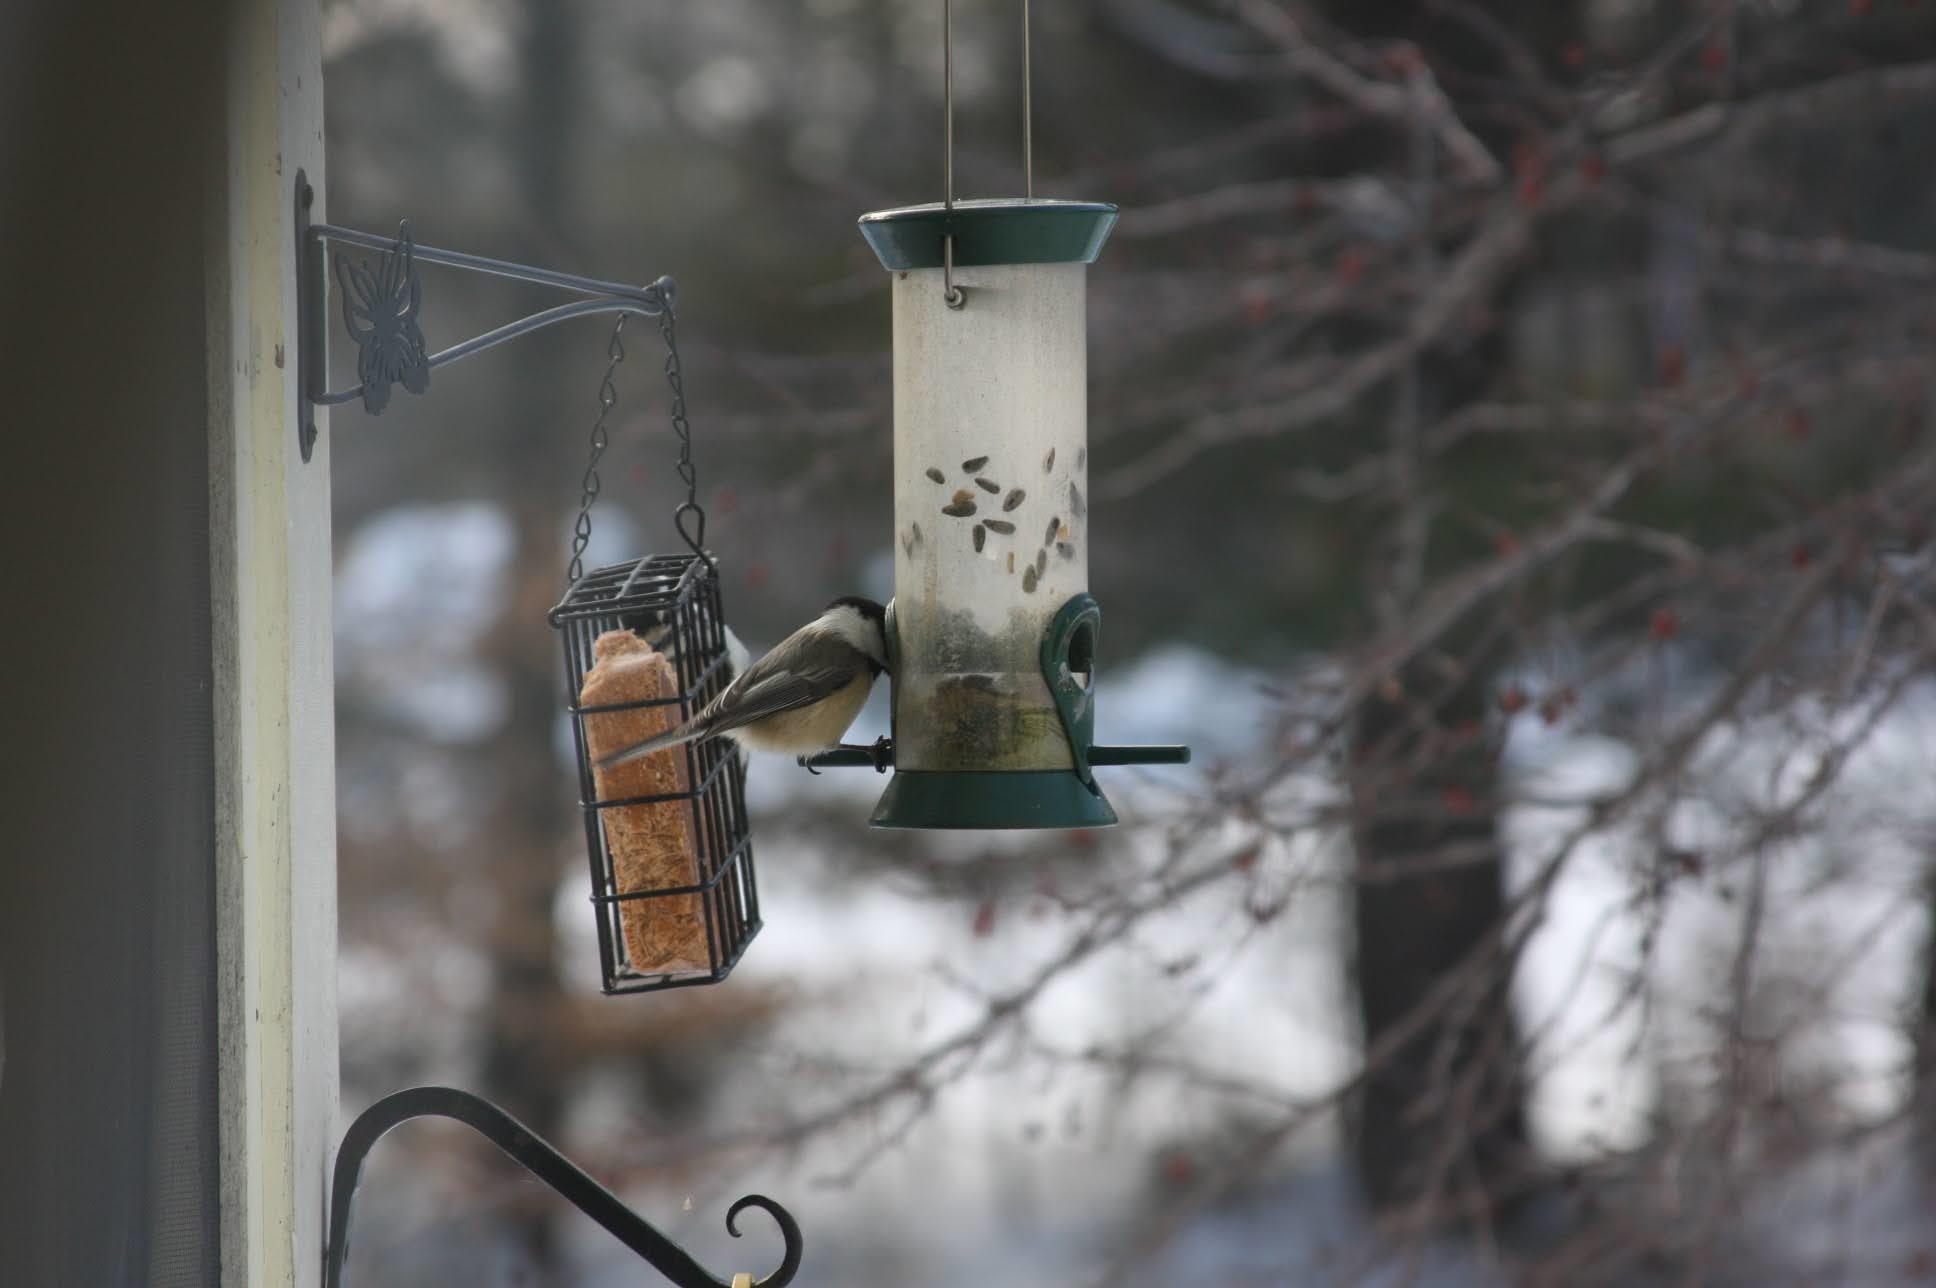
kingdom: Animalia
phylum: Chordata
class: Aves
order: Passeriformes
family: Paridae
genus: Poecile
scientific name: Poecile atricapillus
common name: Black-capped chickadee
